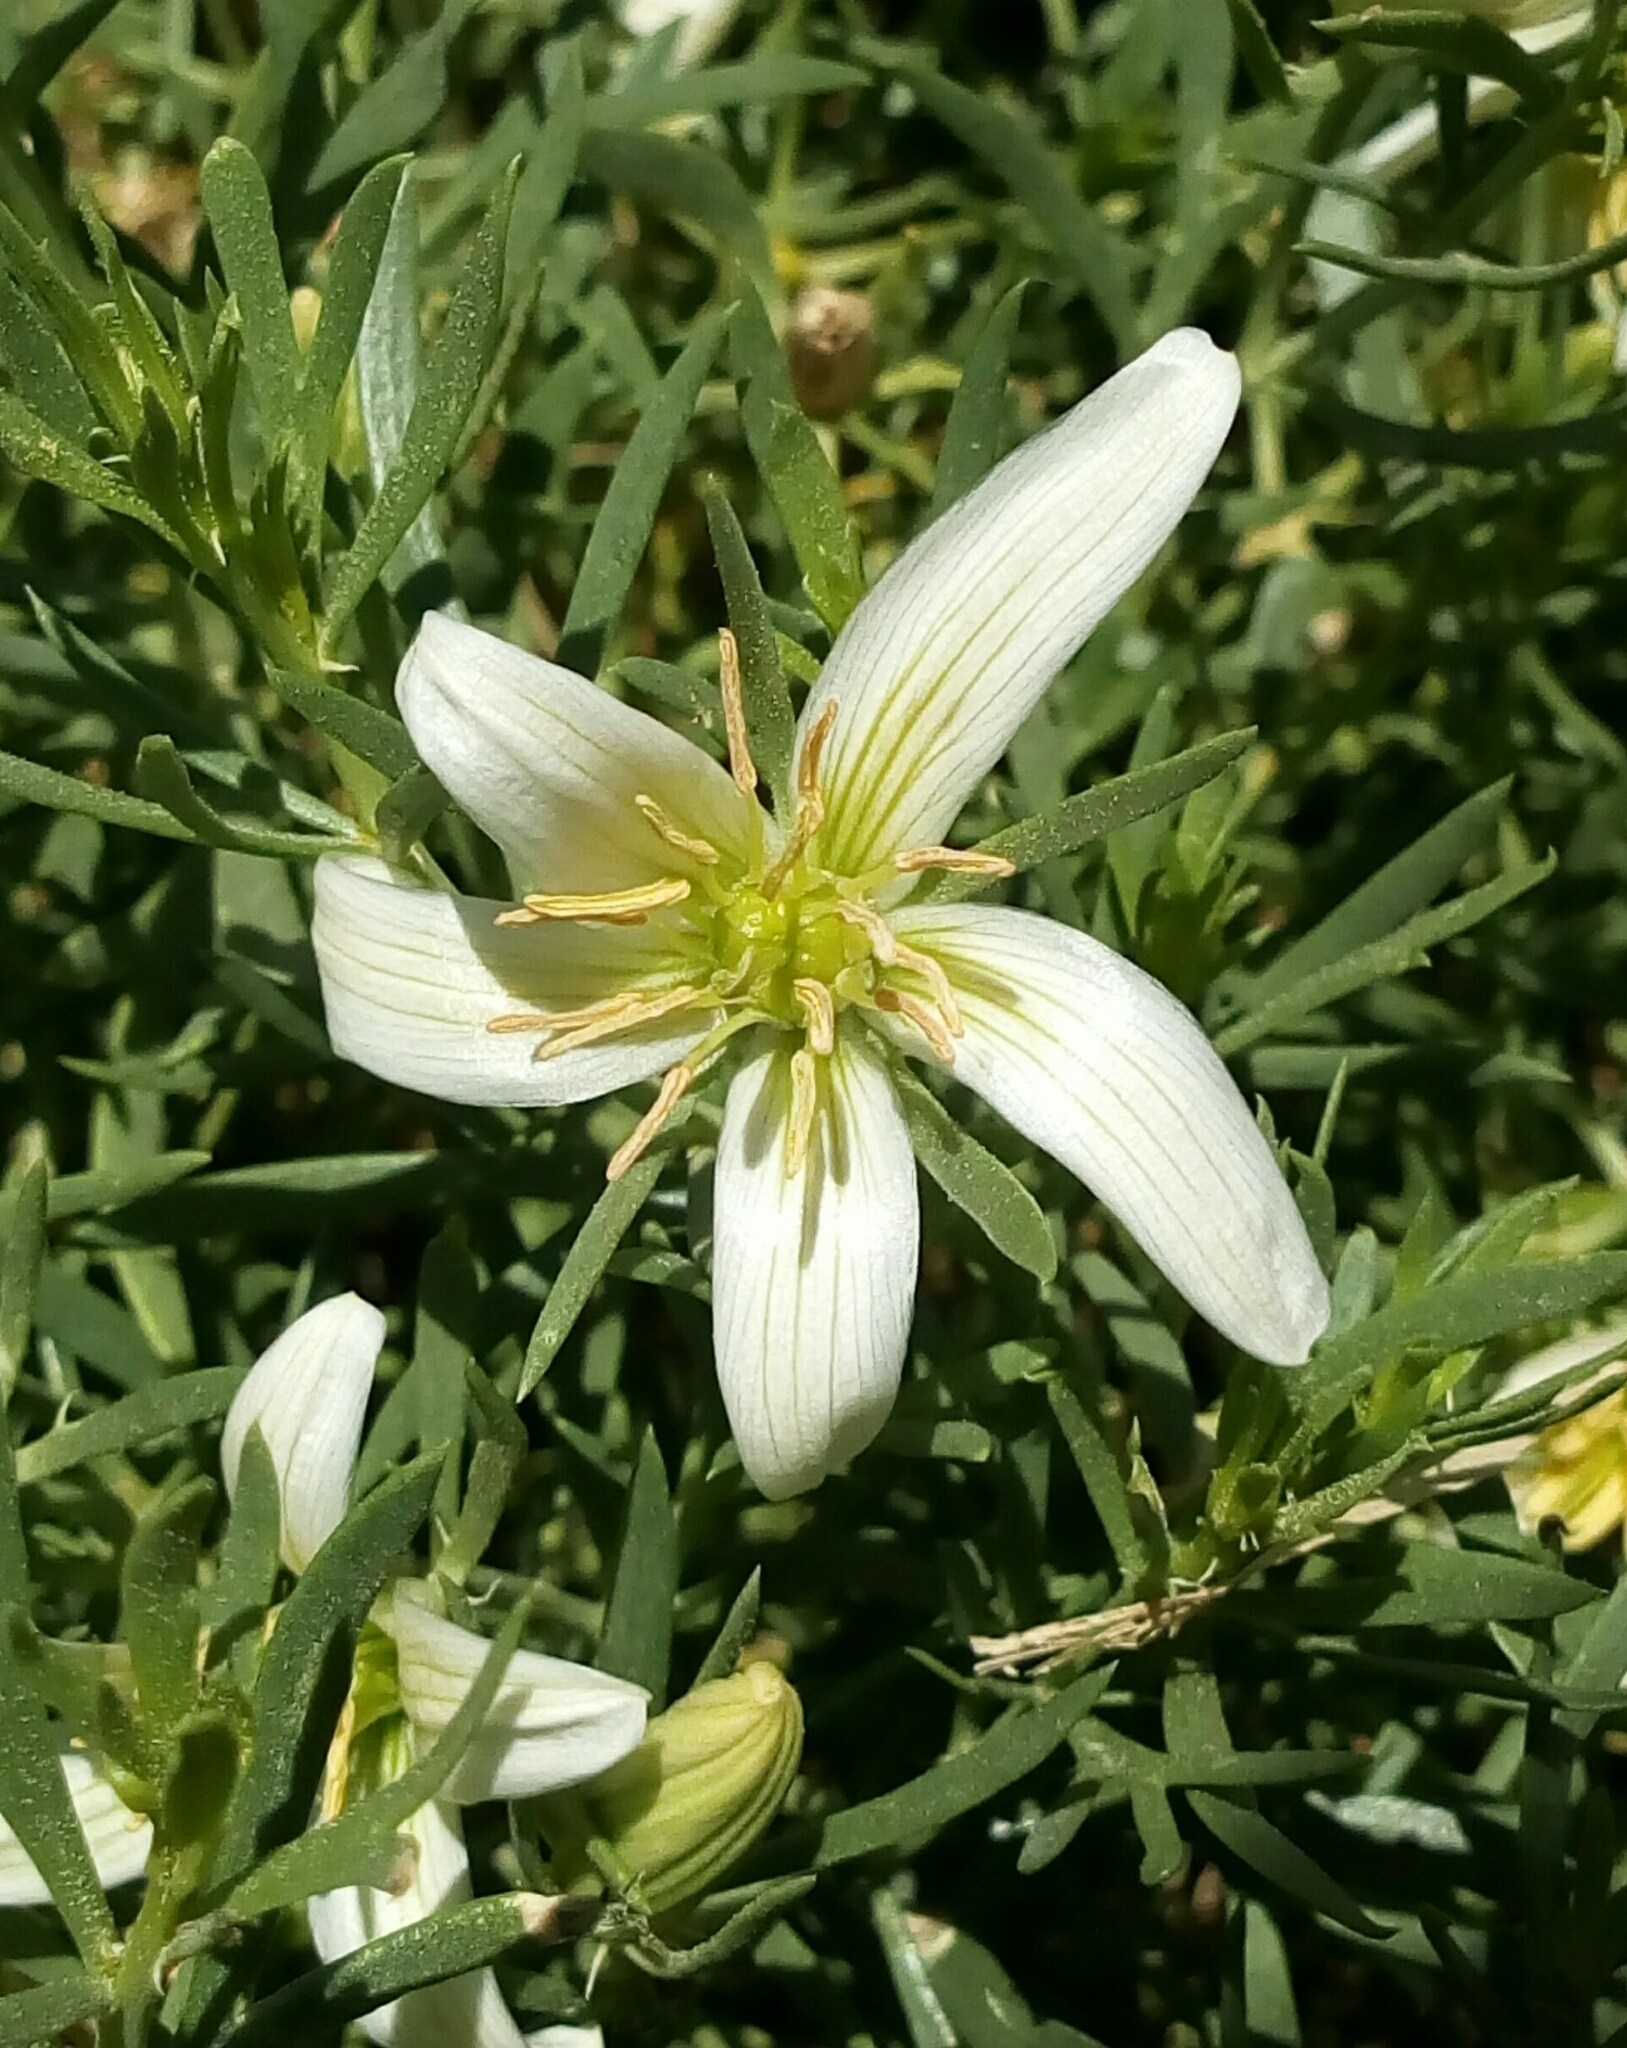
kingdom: Plantae
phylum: Tracheophyta
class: Magnoliopsida
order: Sapindales
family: Tetradiclidaceae
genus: Peganum
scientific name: Peganum harmala
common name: Harmal peganum
